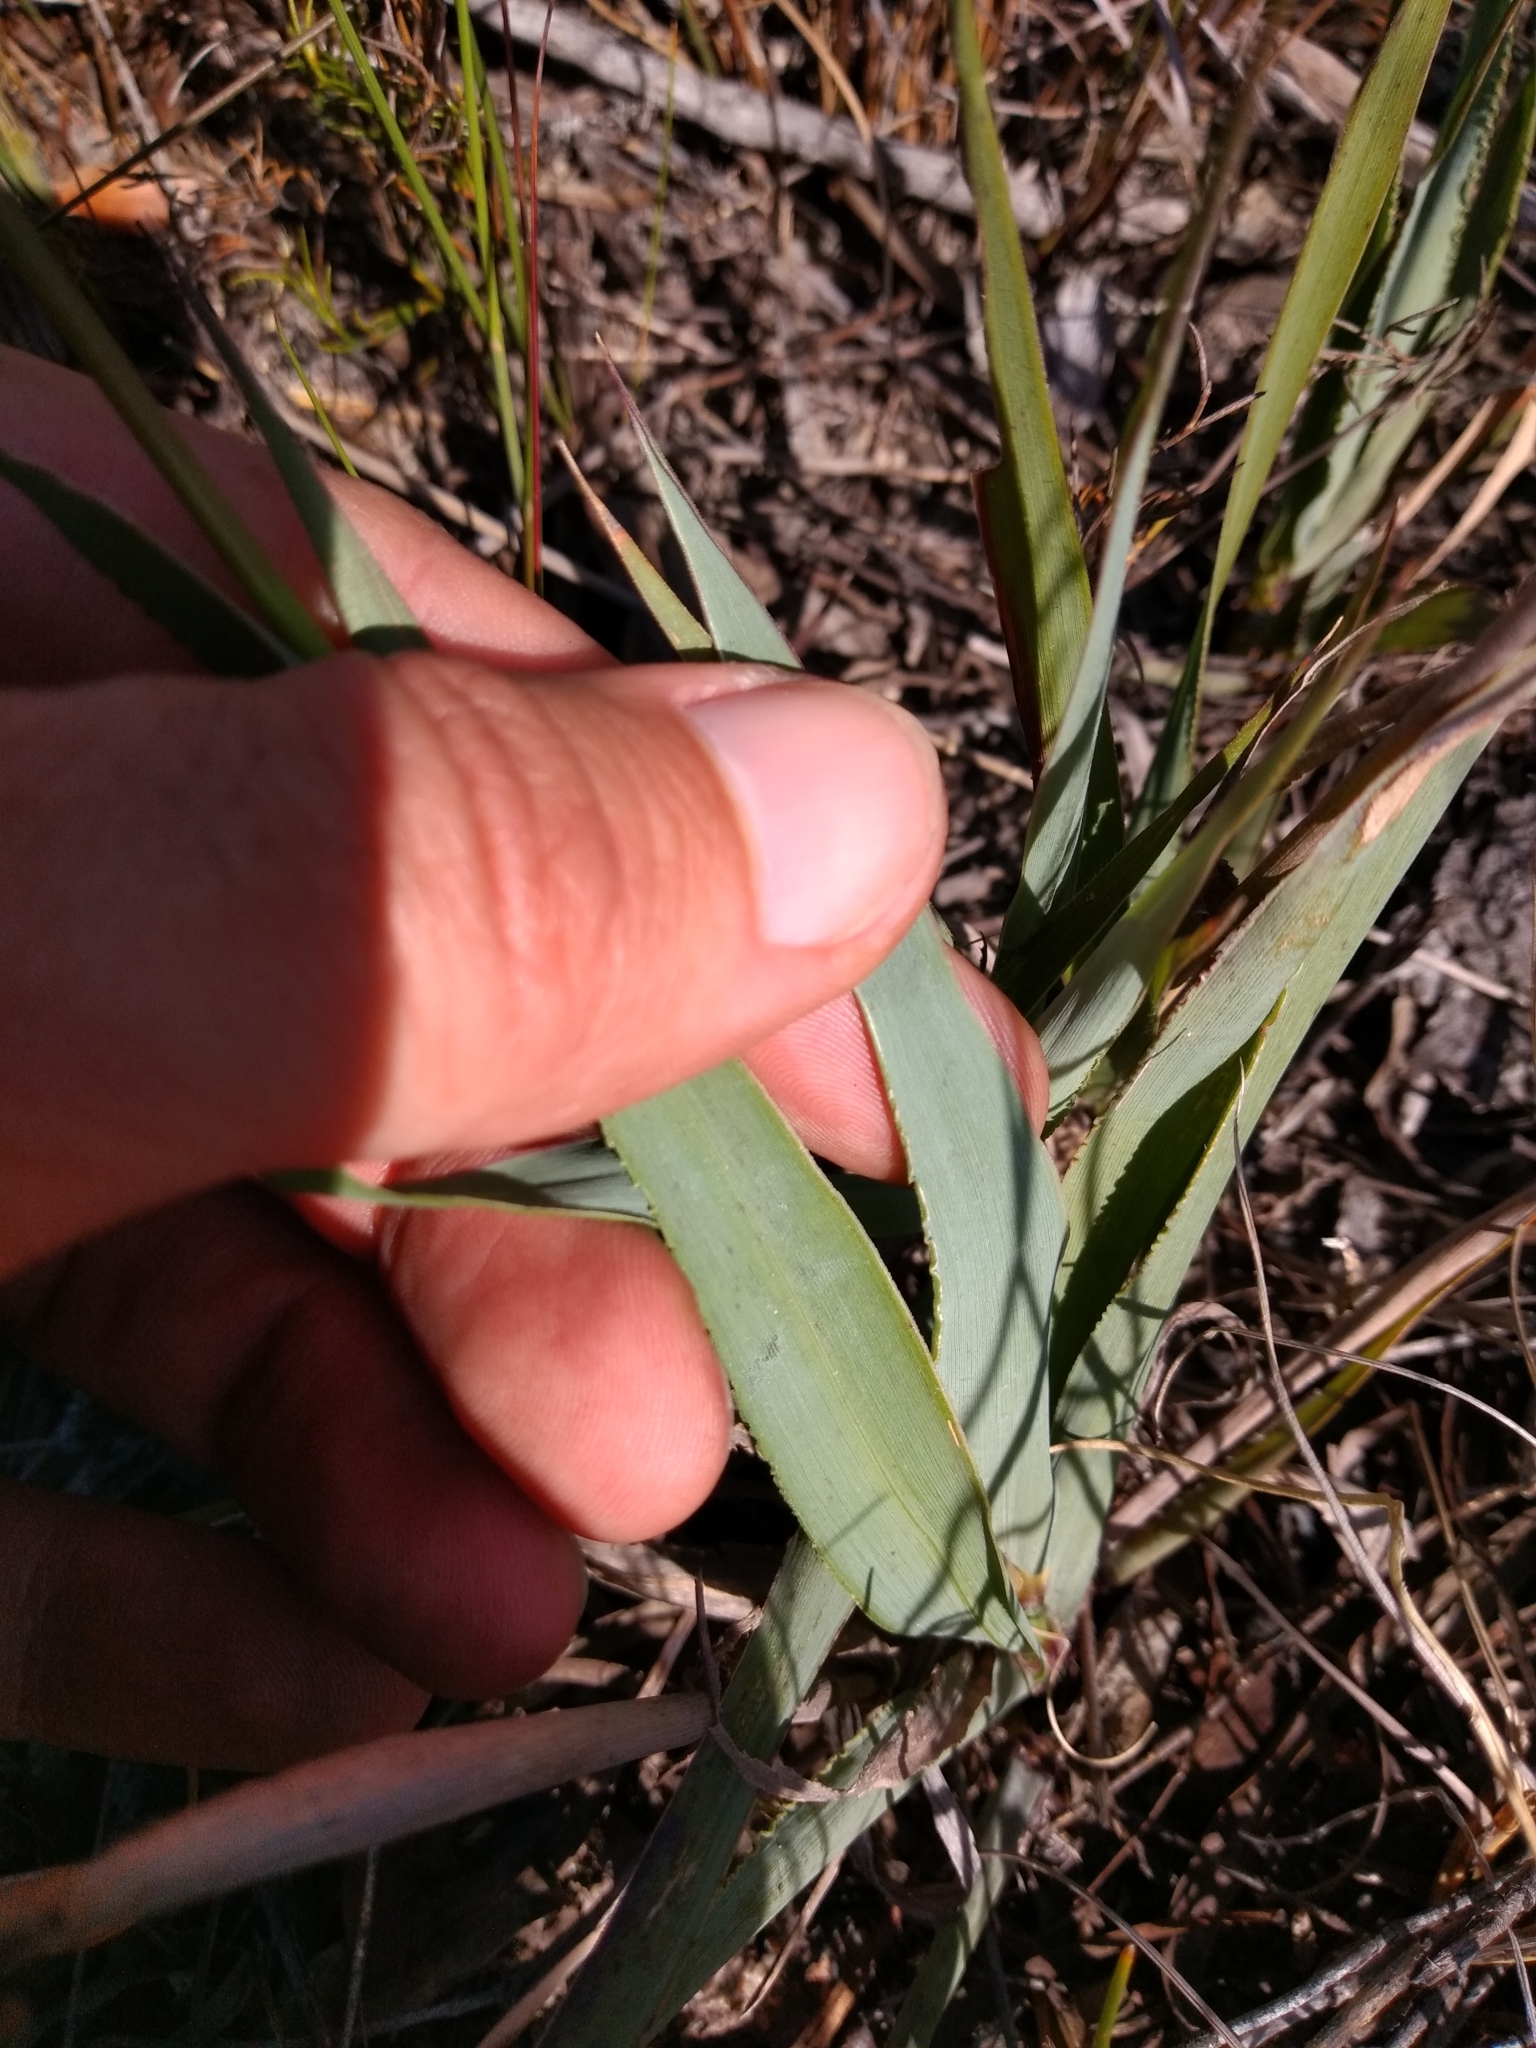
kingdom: Plantae
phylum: Tracheophyta
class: Liliopsida
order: Poales
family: Poaceae
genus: Ehrharta
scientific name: Ehrharta capensis
